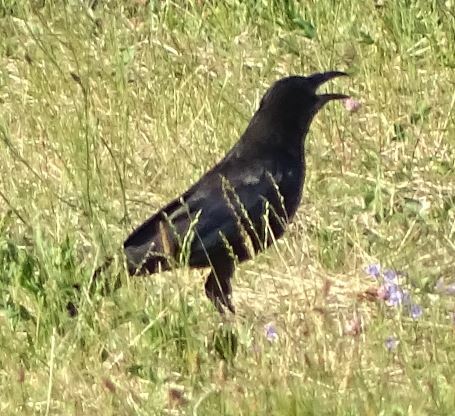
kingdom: Animalia
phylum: Chordata
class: Aves
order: Passeriformes
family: Corvidae
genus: Corvus
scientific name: Corvus corone
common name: Carrion crow
